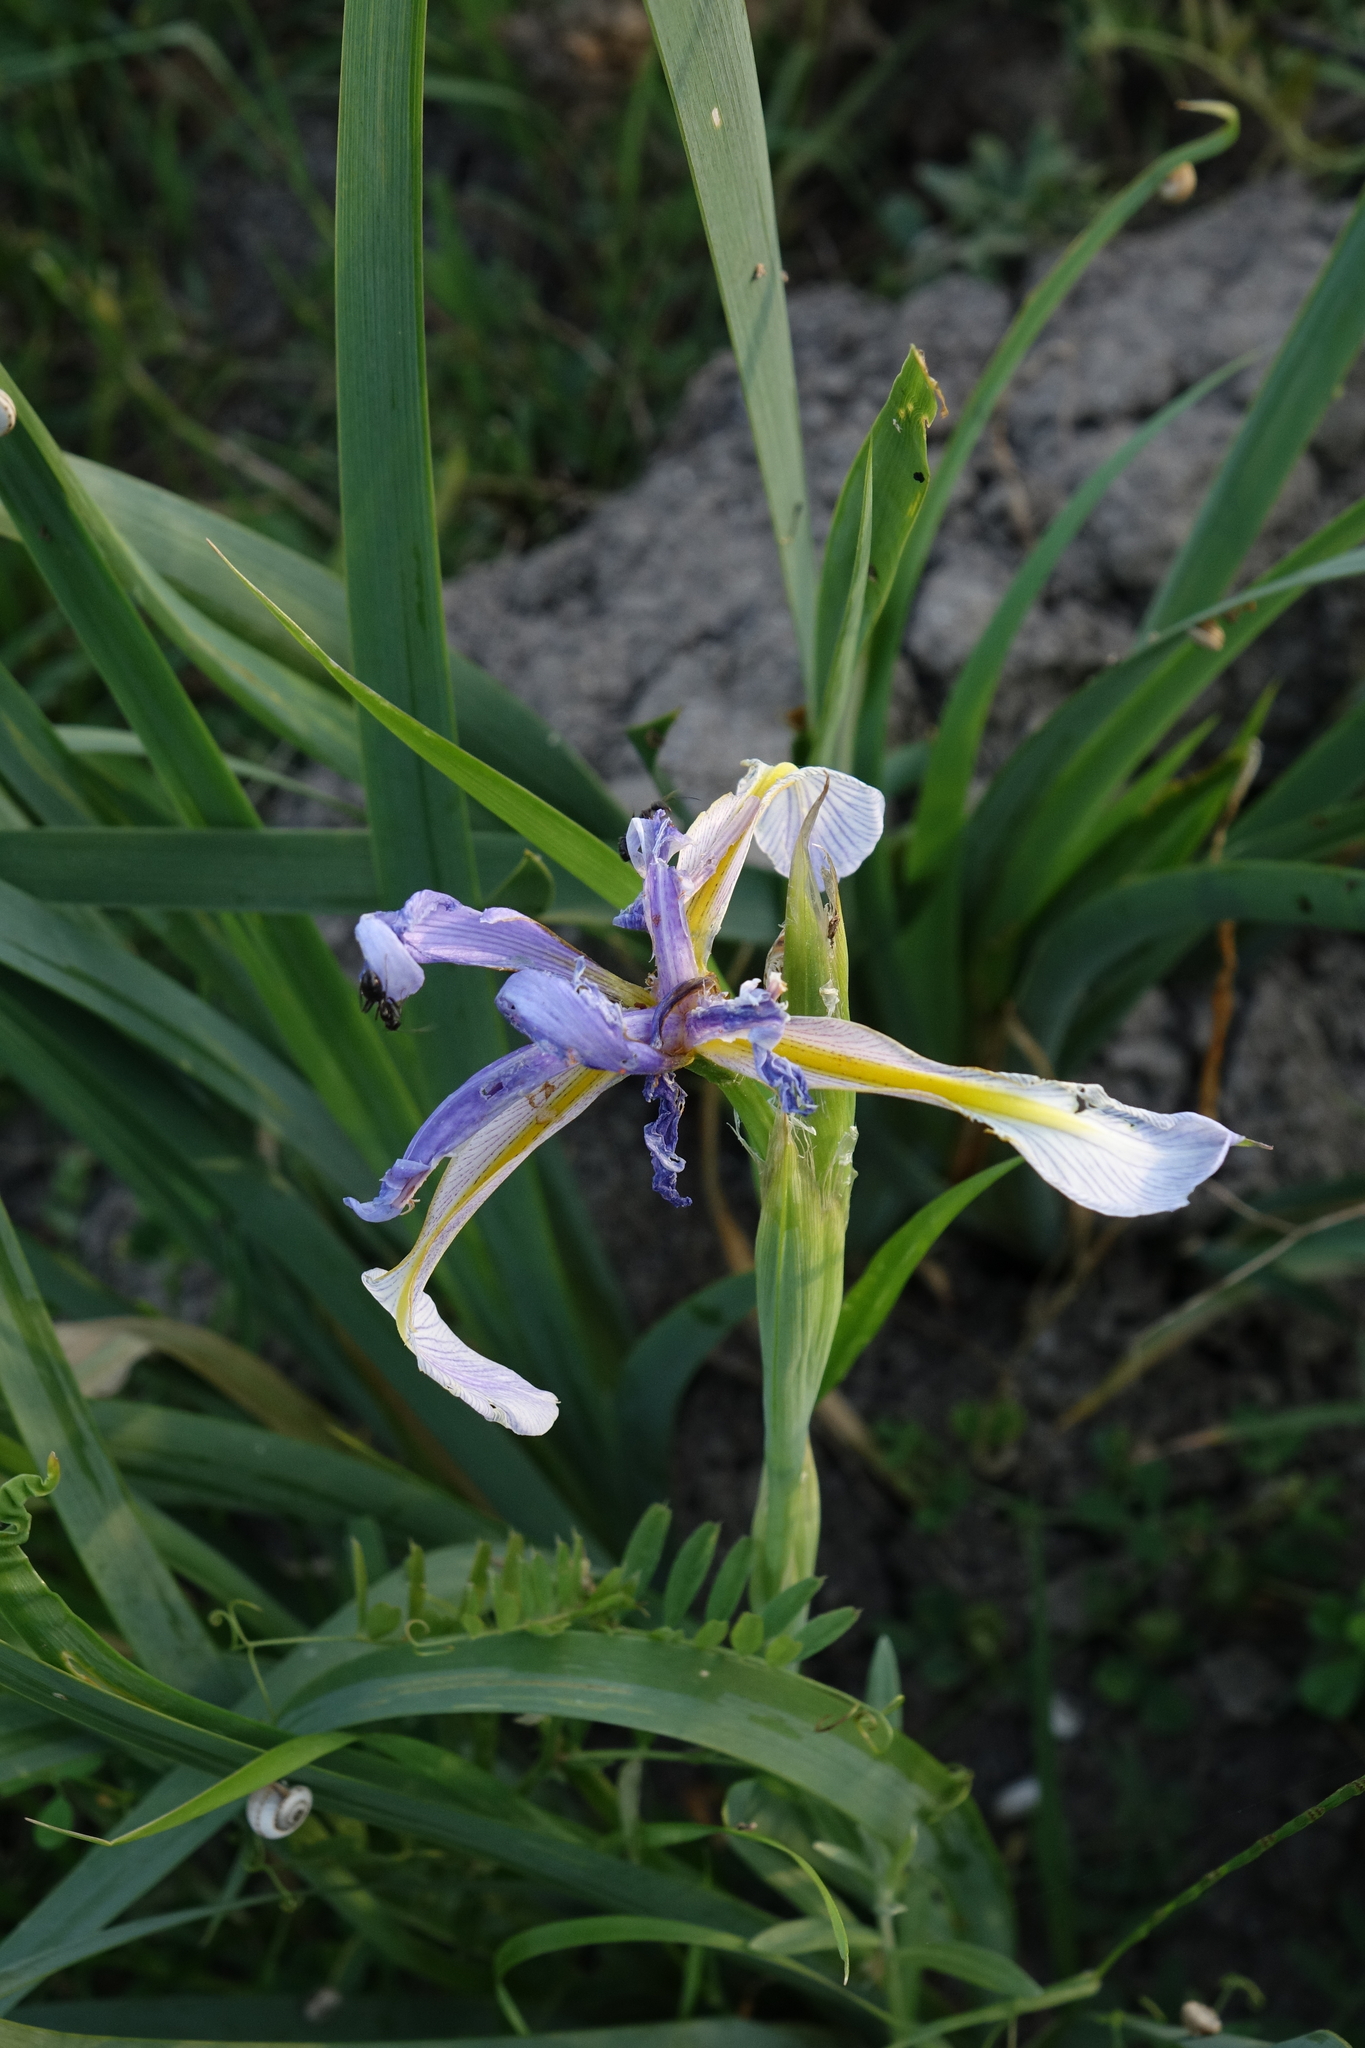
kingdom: Plantae
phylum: Tracheophyta
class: Liliopsida
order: Asparagales
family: Iridaceae
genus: Iris
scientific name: Iris pseudonotha
